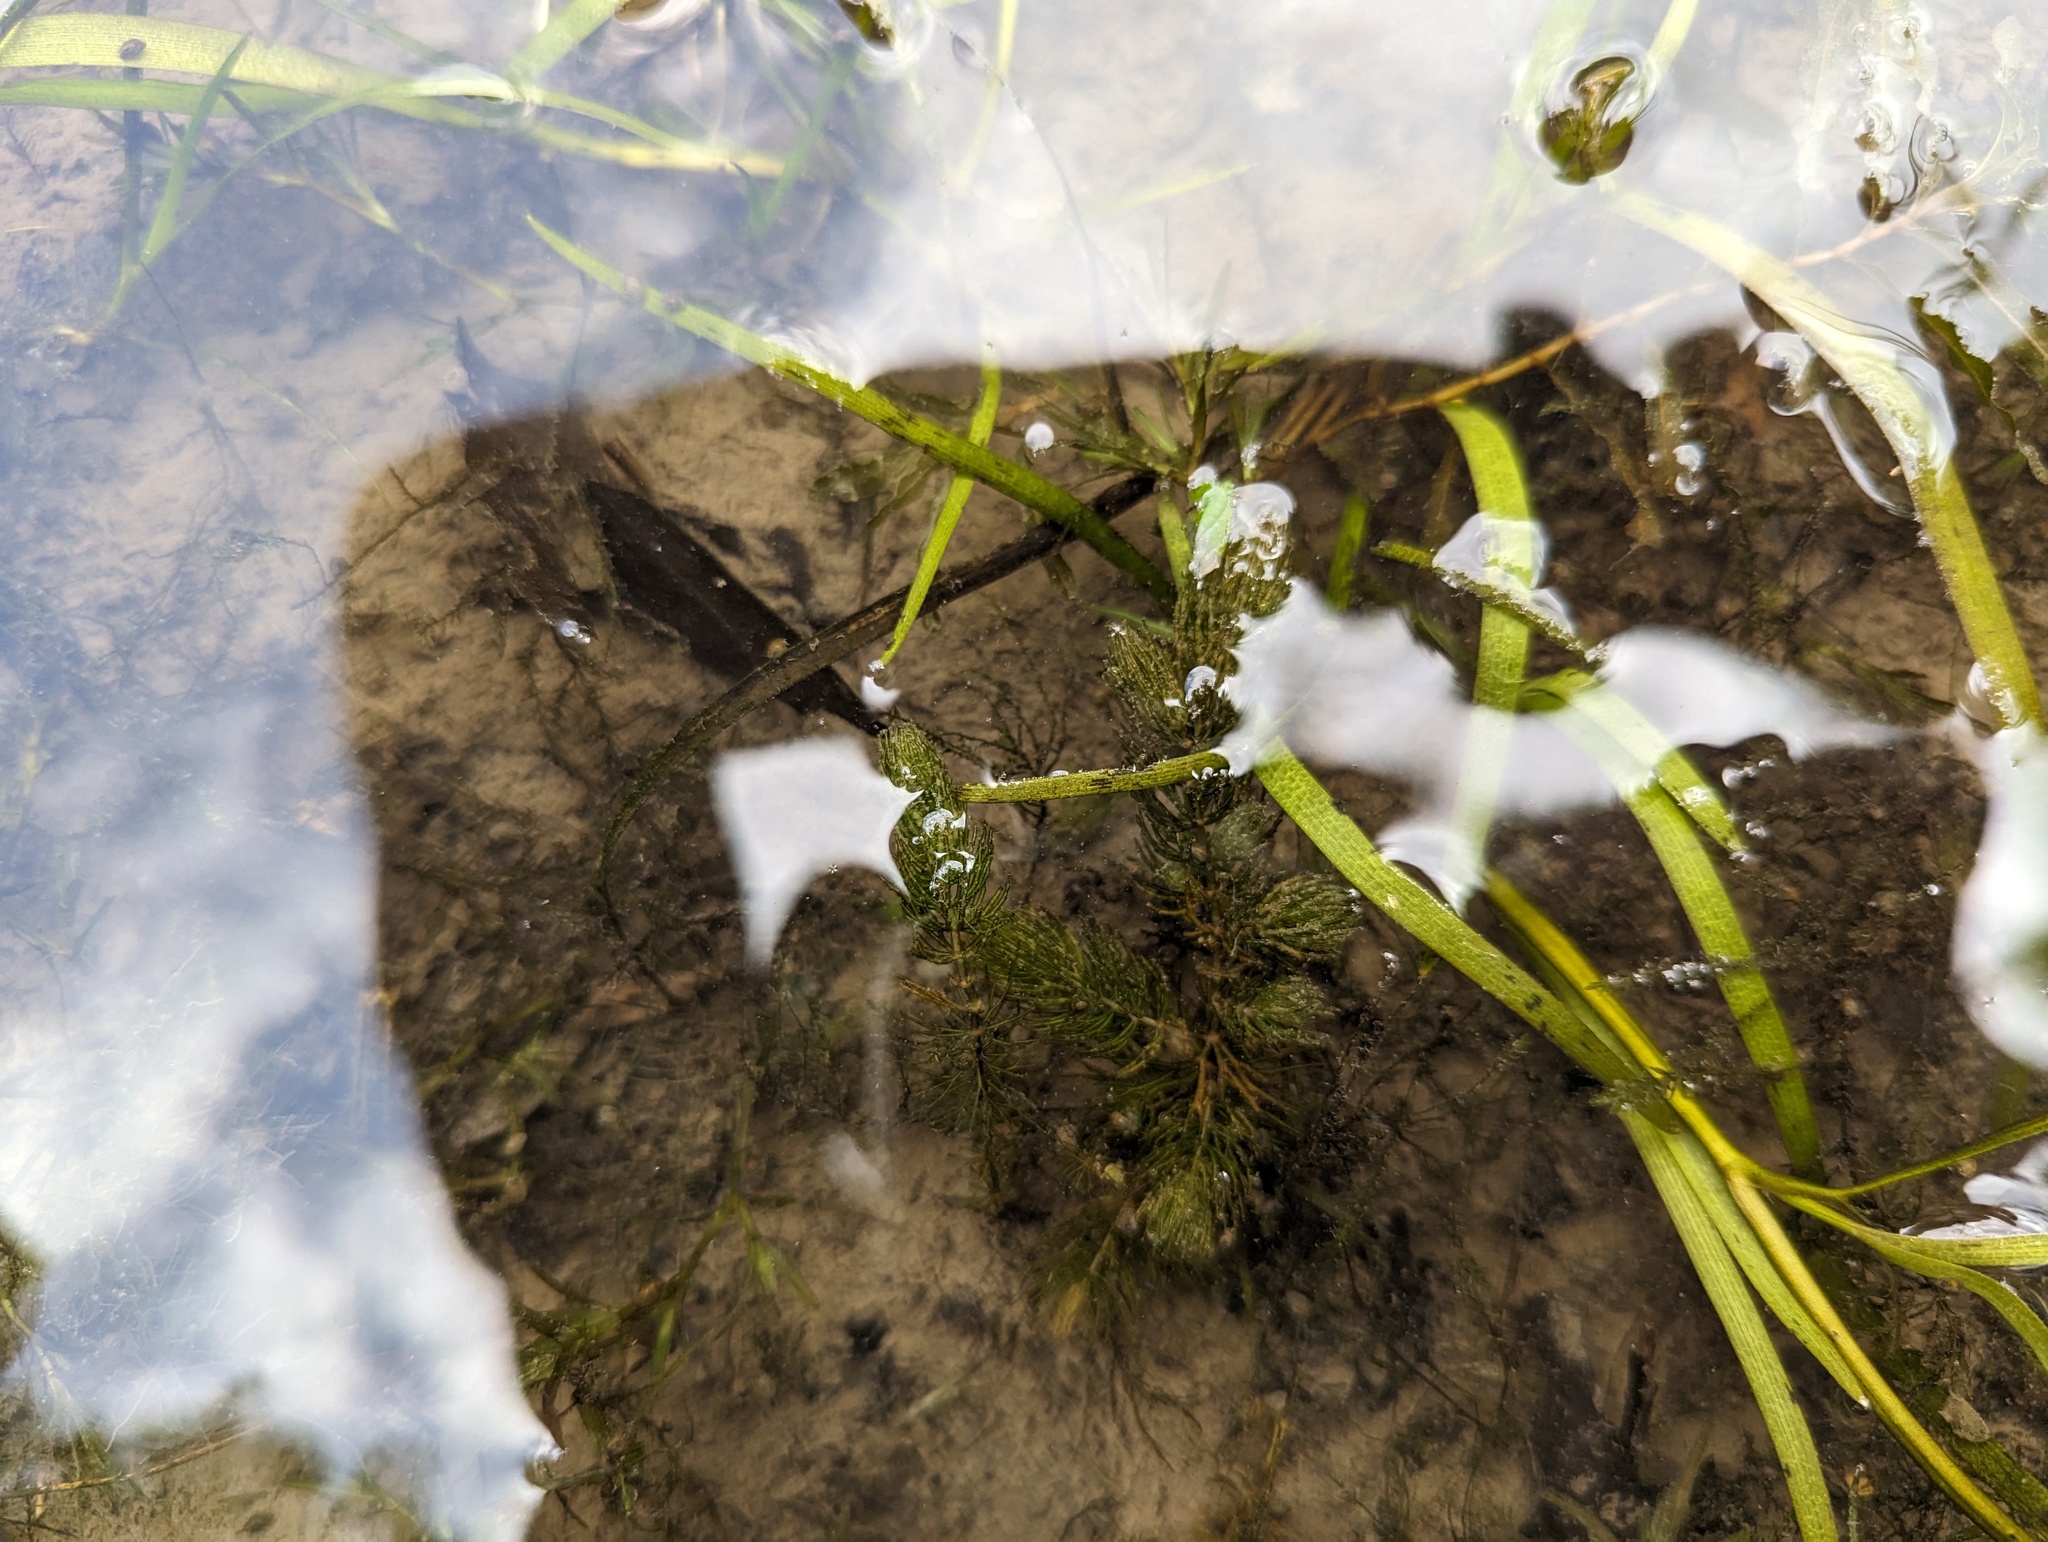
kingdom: Plantae
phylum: Tracheophyta
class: Magnoliopsida
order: Ceratophyllales
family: Ceratophyllaceae
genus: Ceratophyllum
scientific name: Ceratophyllum demersum
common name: Rigid hornwort
